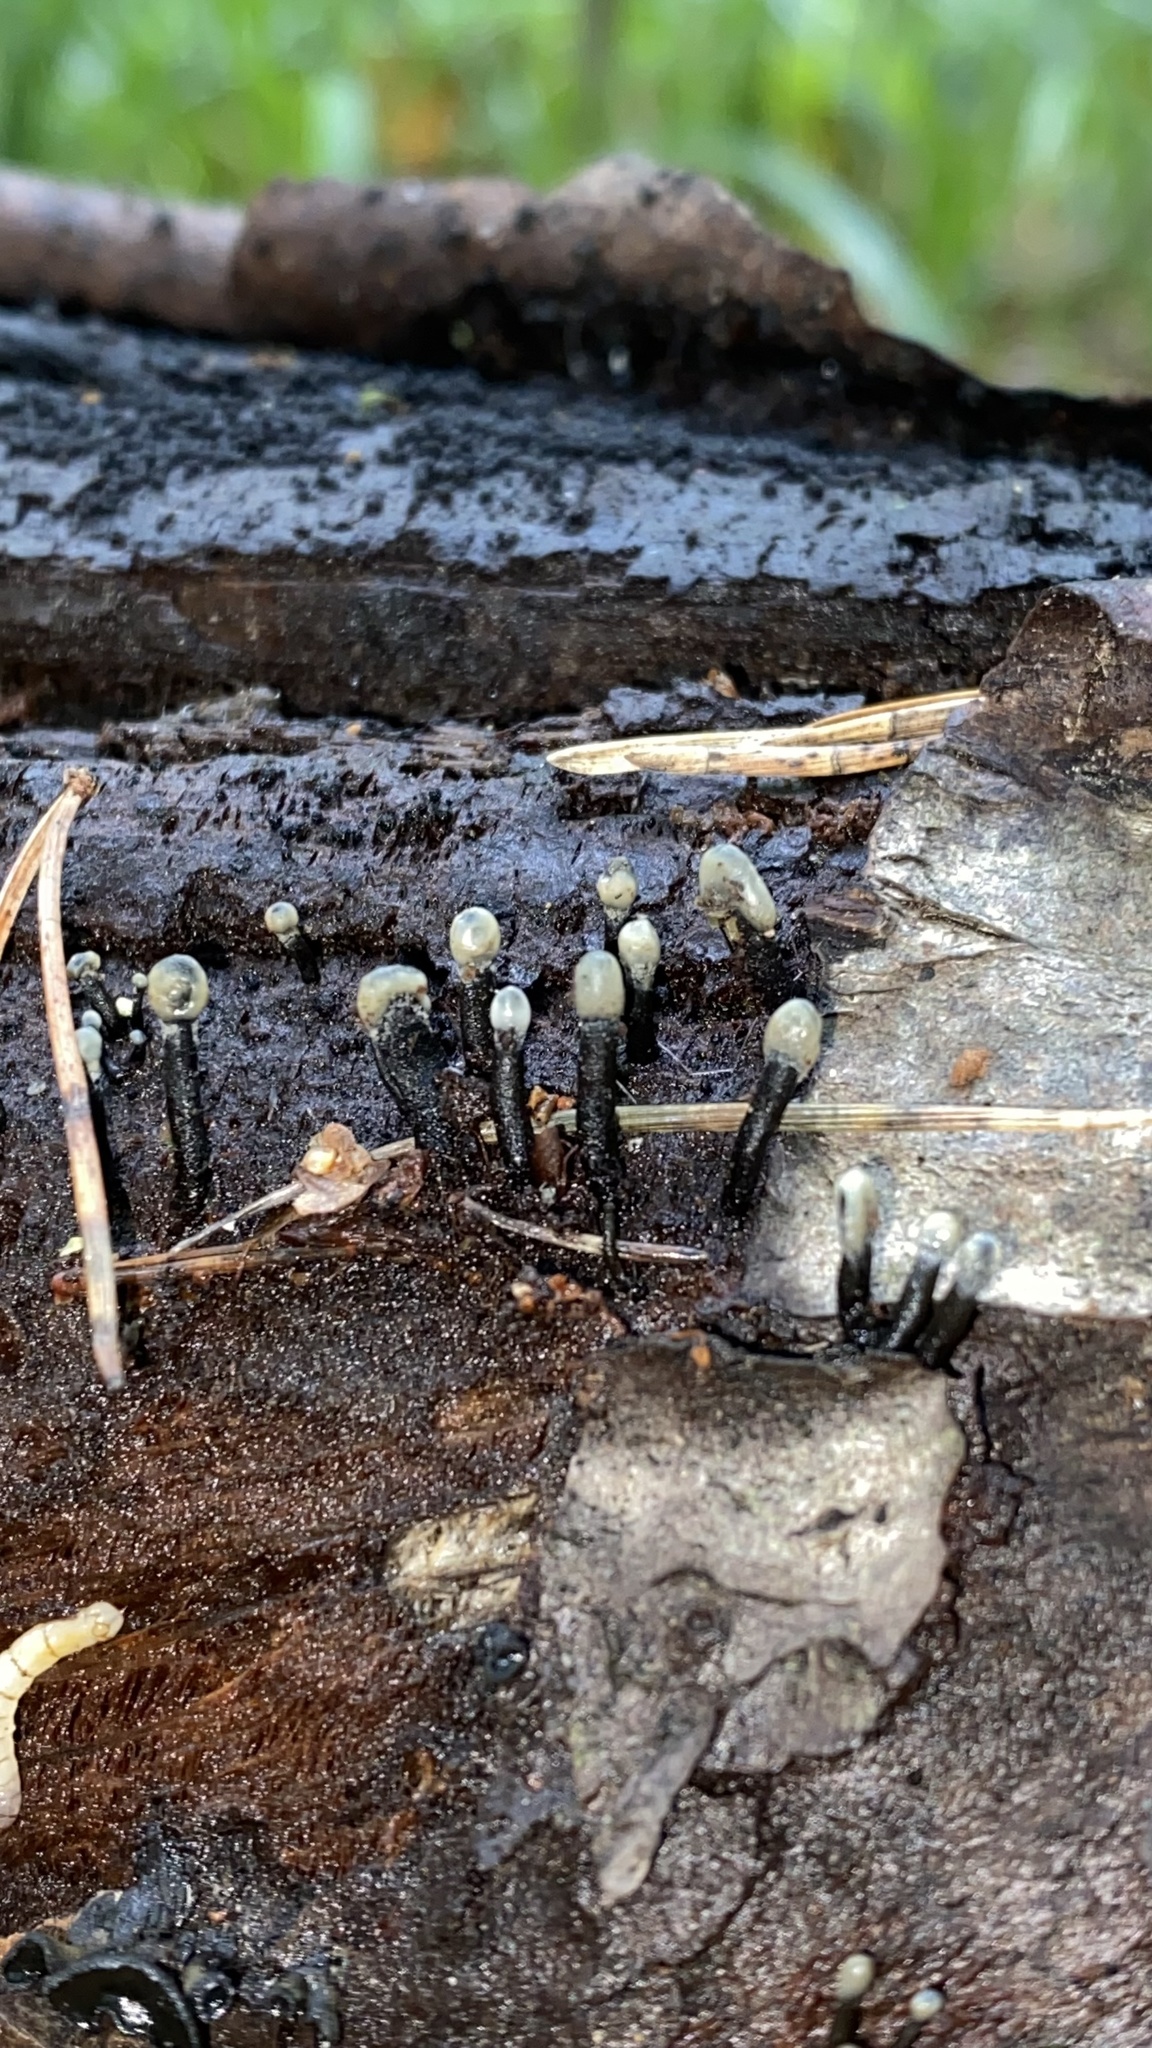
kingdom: Fungi
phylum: Ascomycota
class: Leotiomycetes
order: Helotiales
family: Bulgariaceae
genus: Holwaya
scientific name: Holwaya mucida
